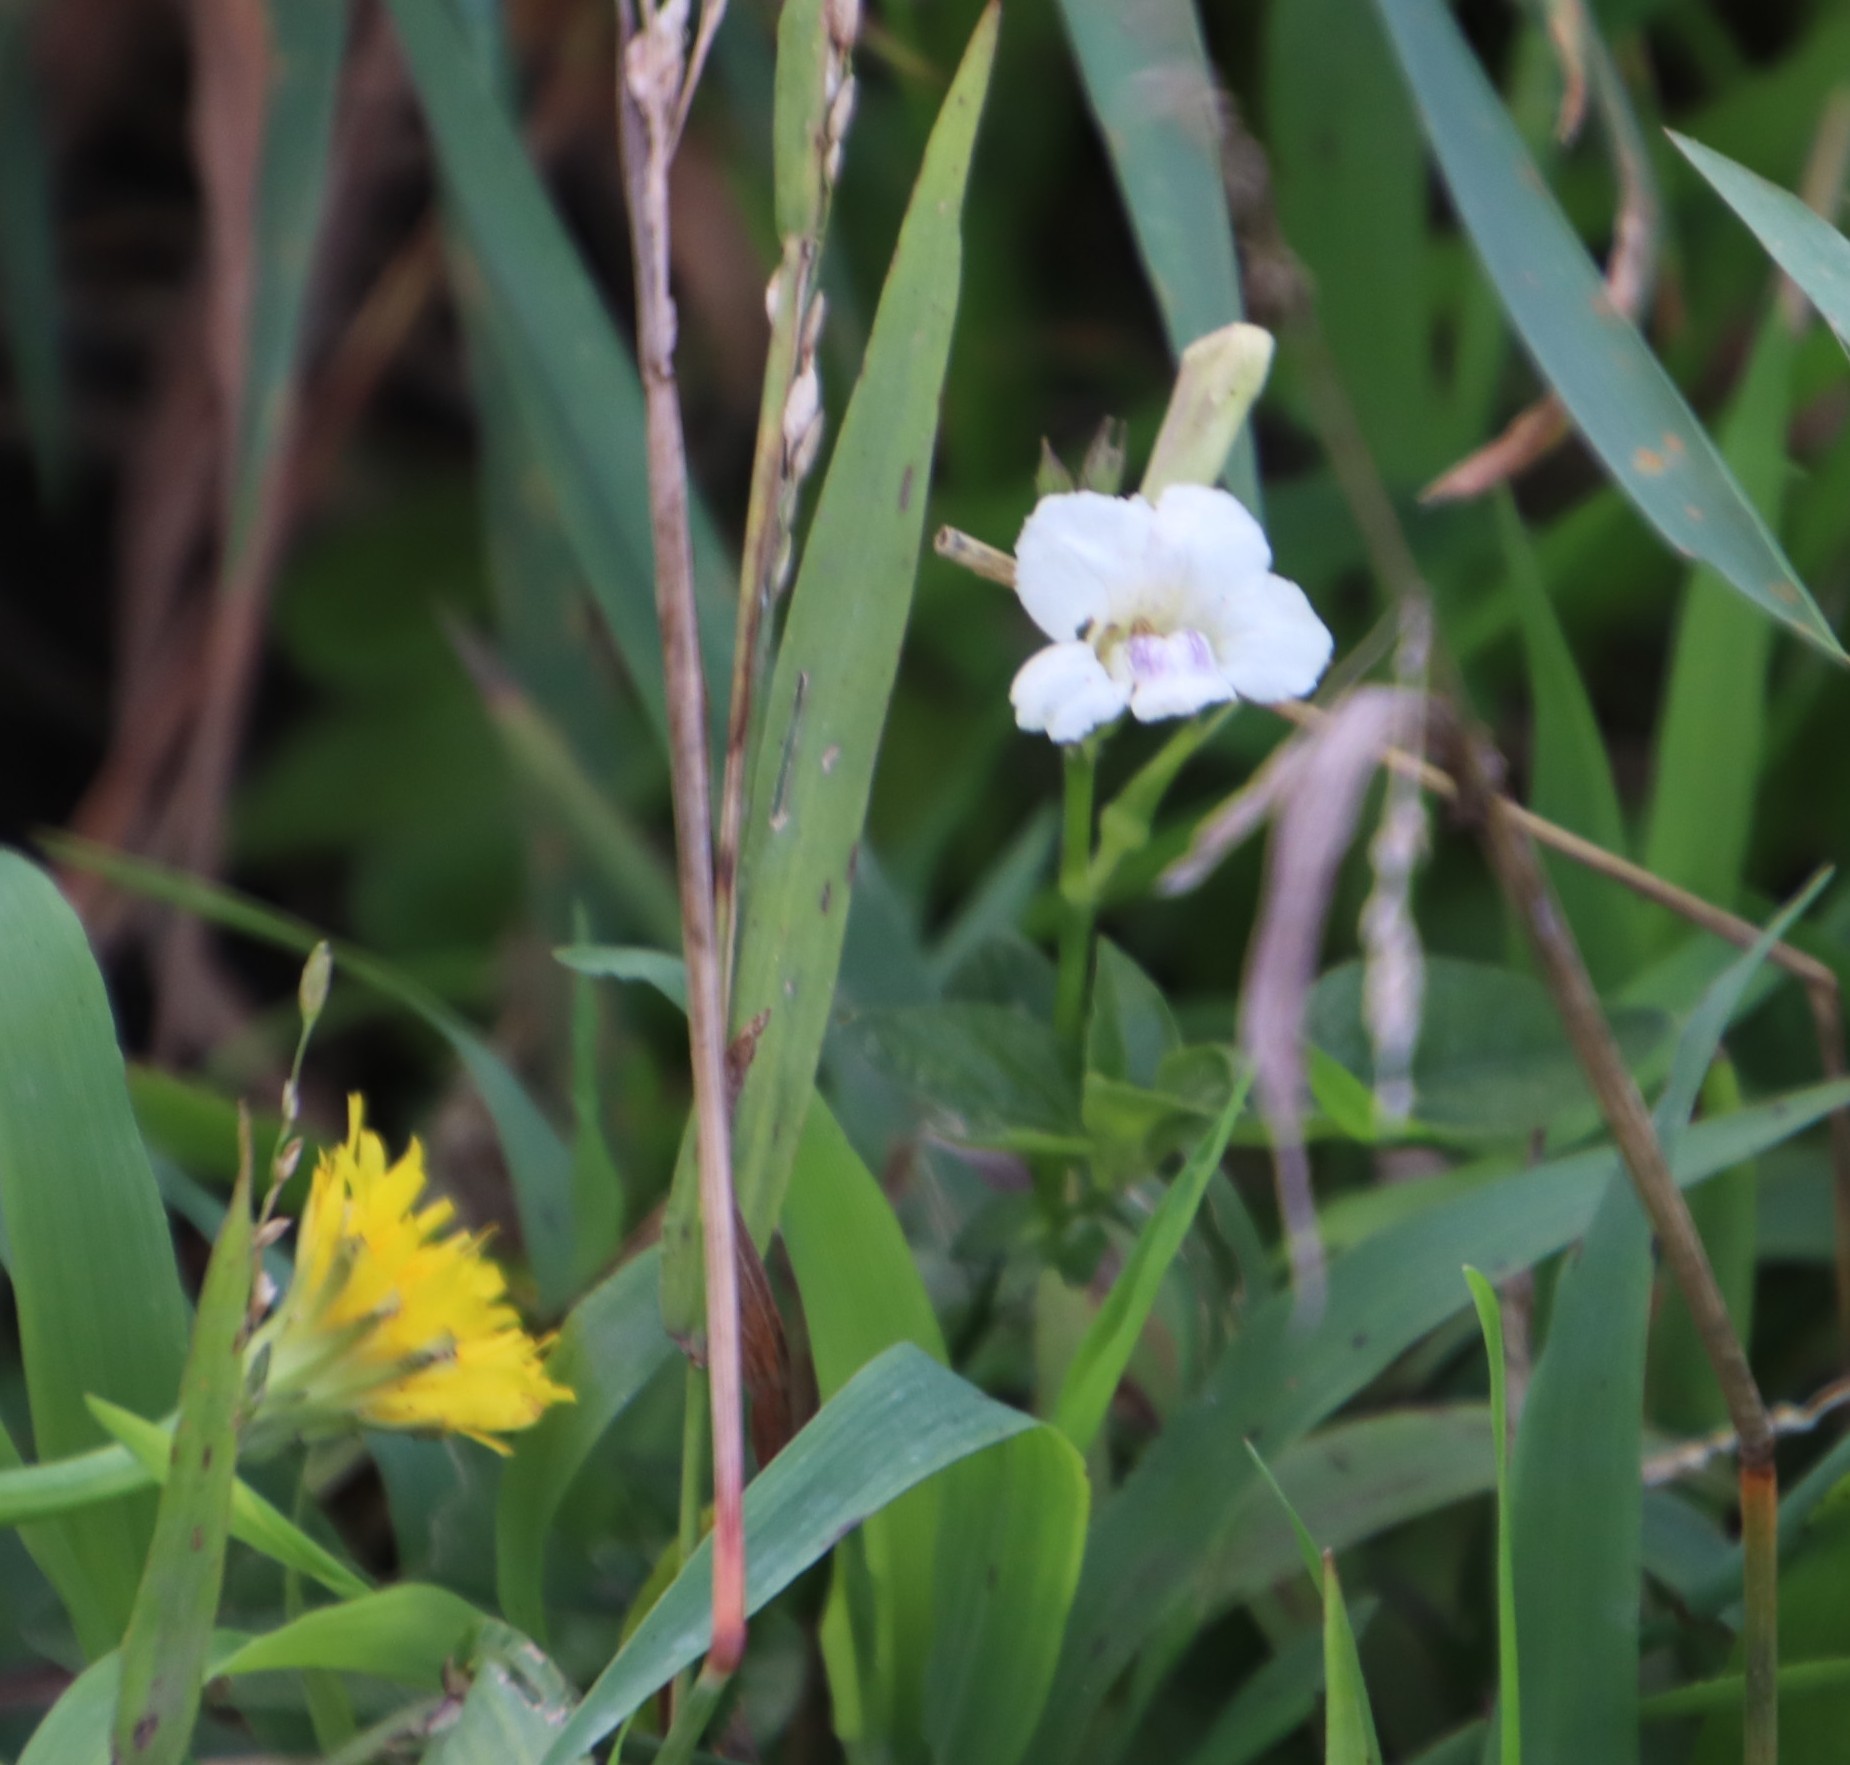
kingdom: Plantae
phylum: Tracheophyta
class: Magnoliopsida
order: Lamiales
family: Acanthaceae
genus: Asystasia
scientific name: Asystasia intrusa
